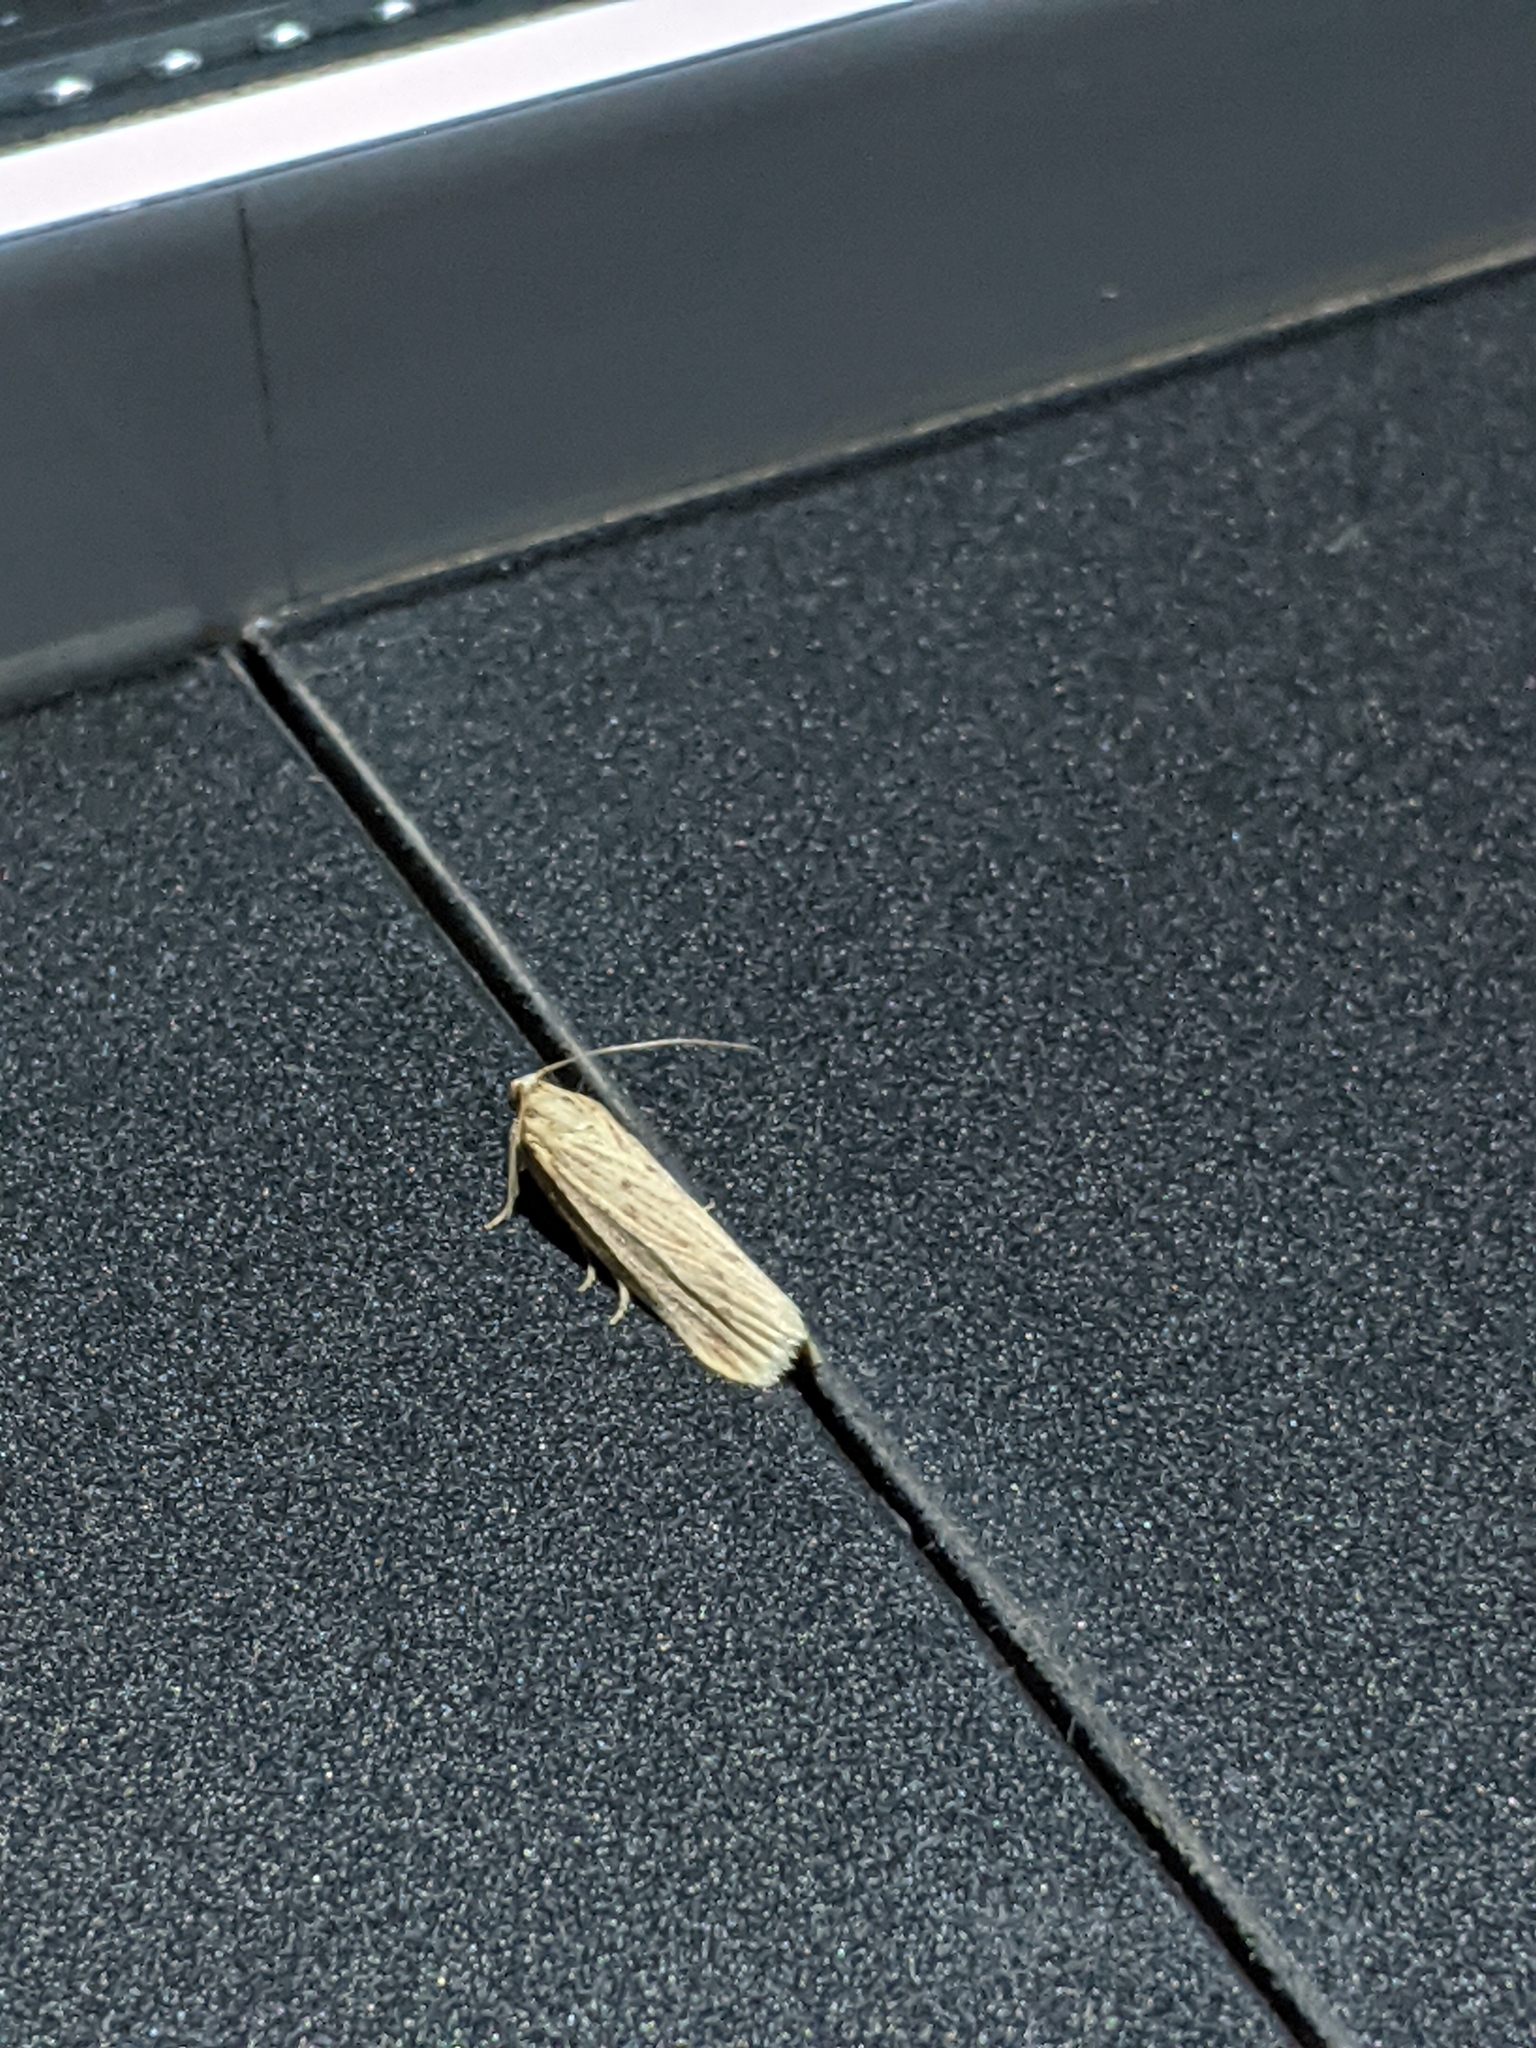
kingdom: Animalia
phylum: Arthropoda
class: Insecta
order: Lepidoptera
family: Pyralidae
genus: Ematheudes
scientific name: Ematheudes punctellus
